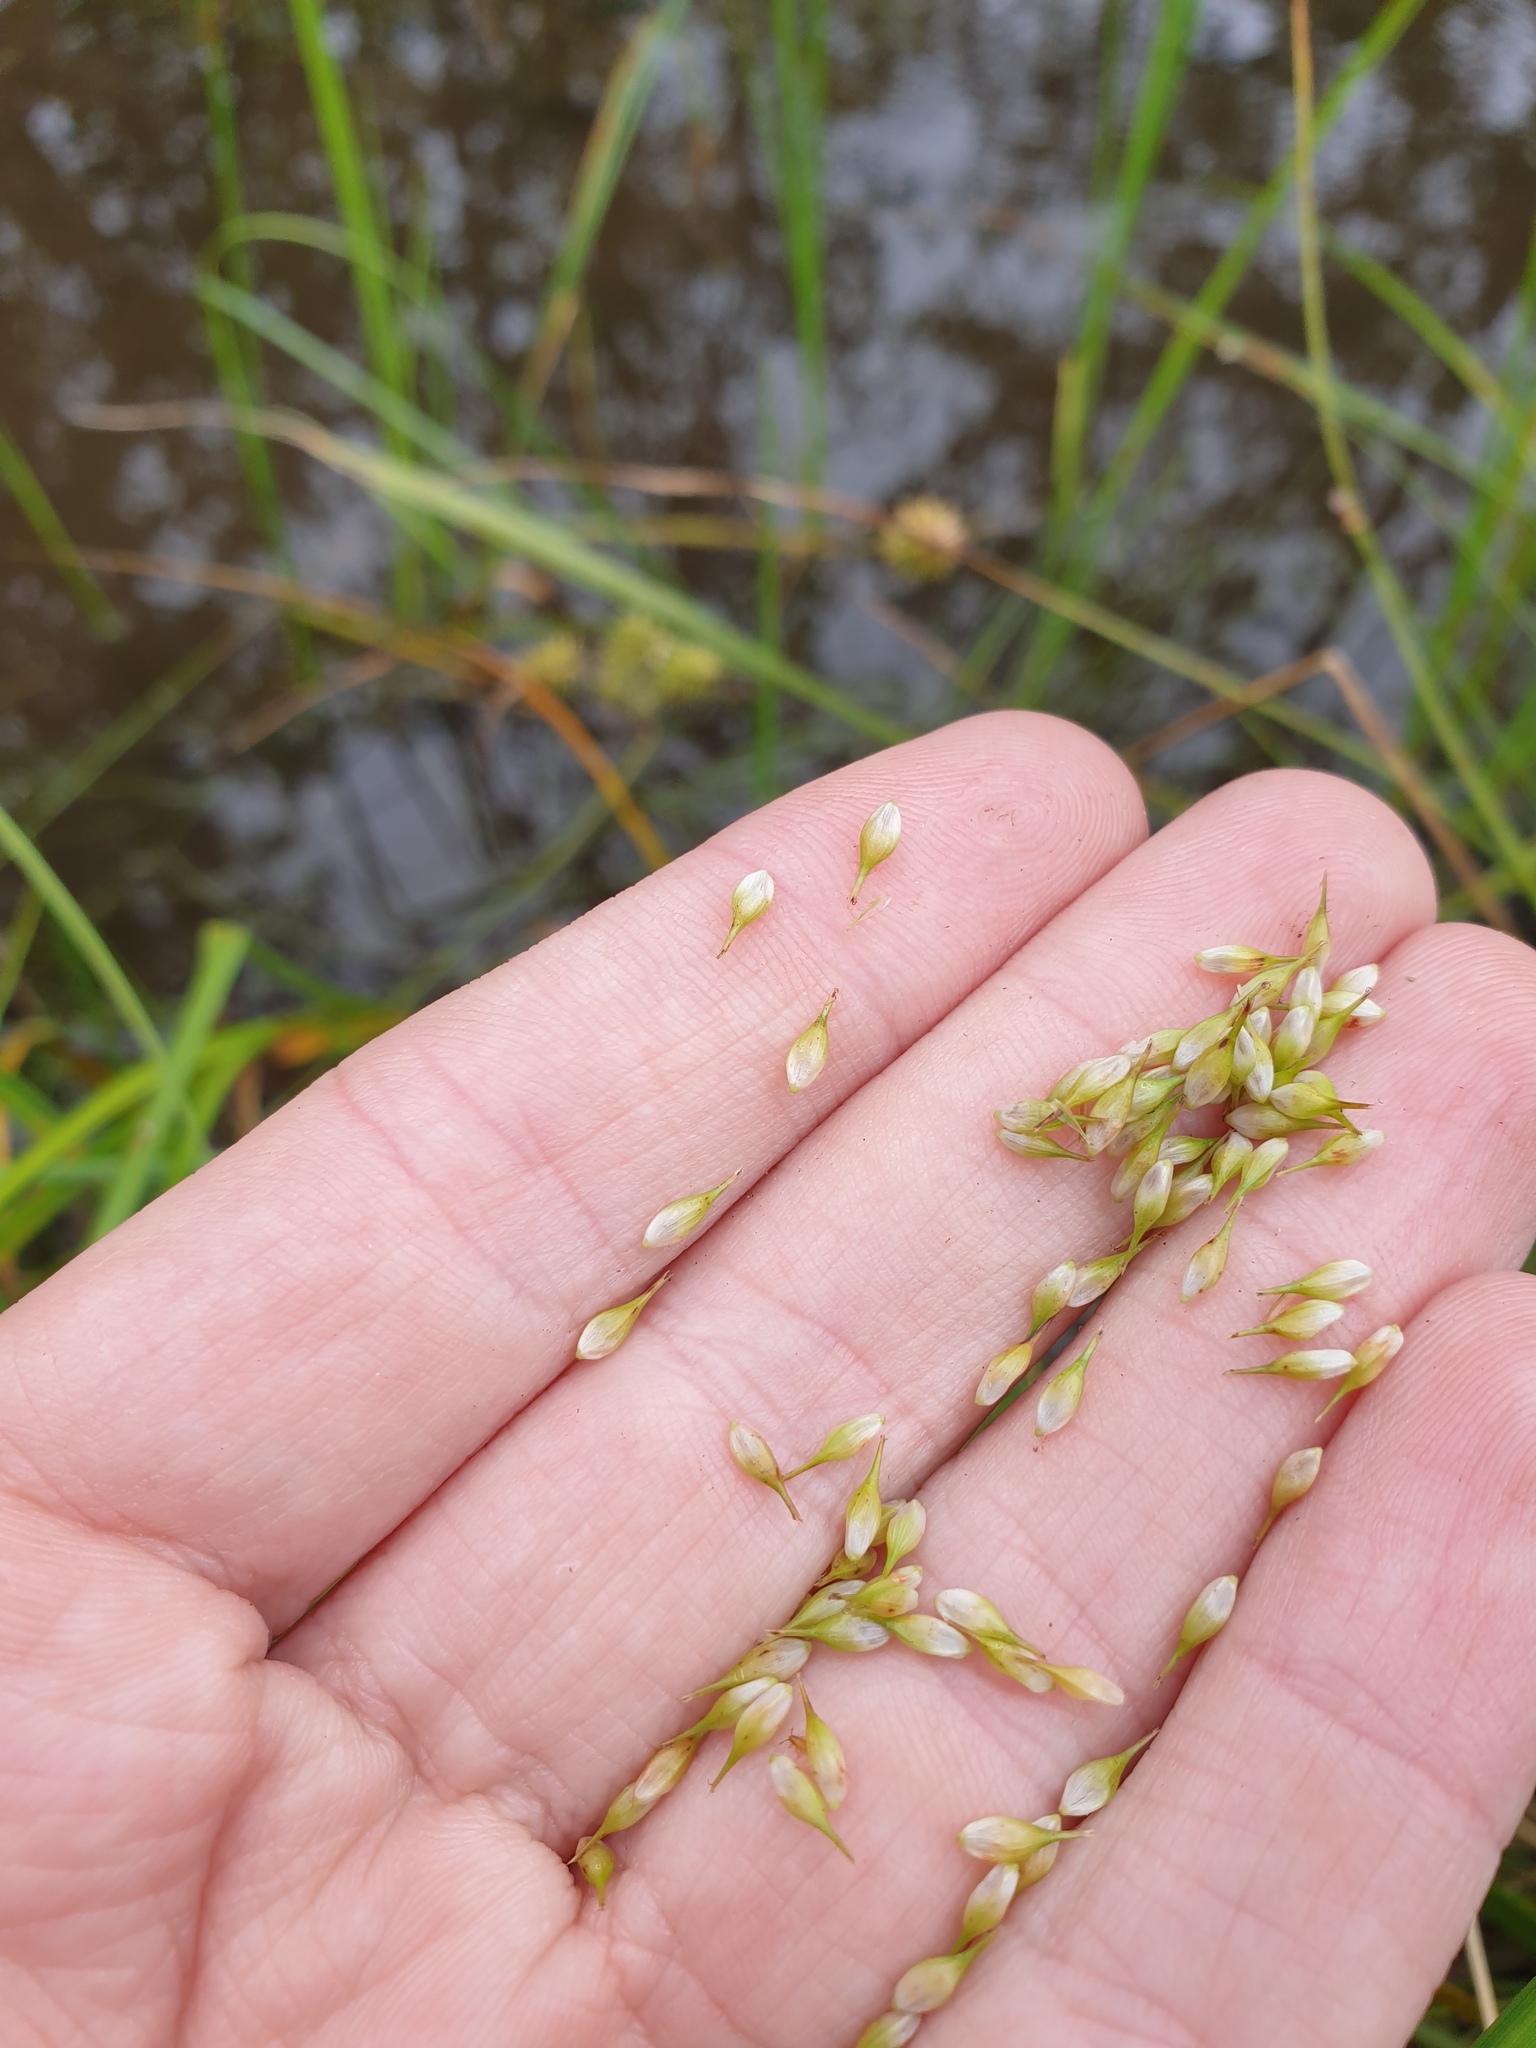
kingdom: Plantae
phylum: Tracheophyta
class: Liliopsida
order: Poales
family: Cyperaceae
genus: Carex
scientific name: Carex hystericina
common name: Bottlebrush sedge
